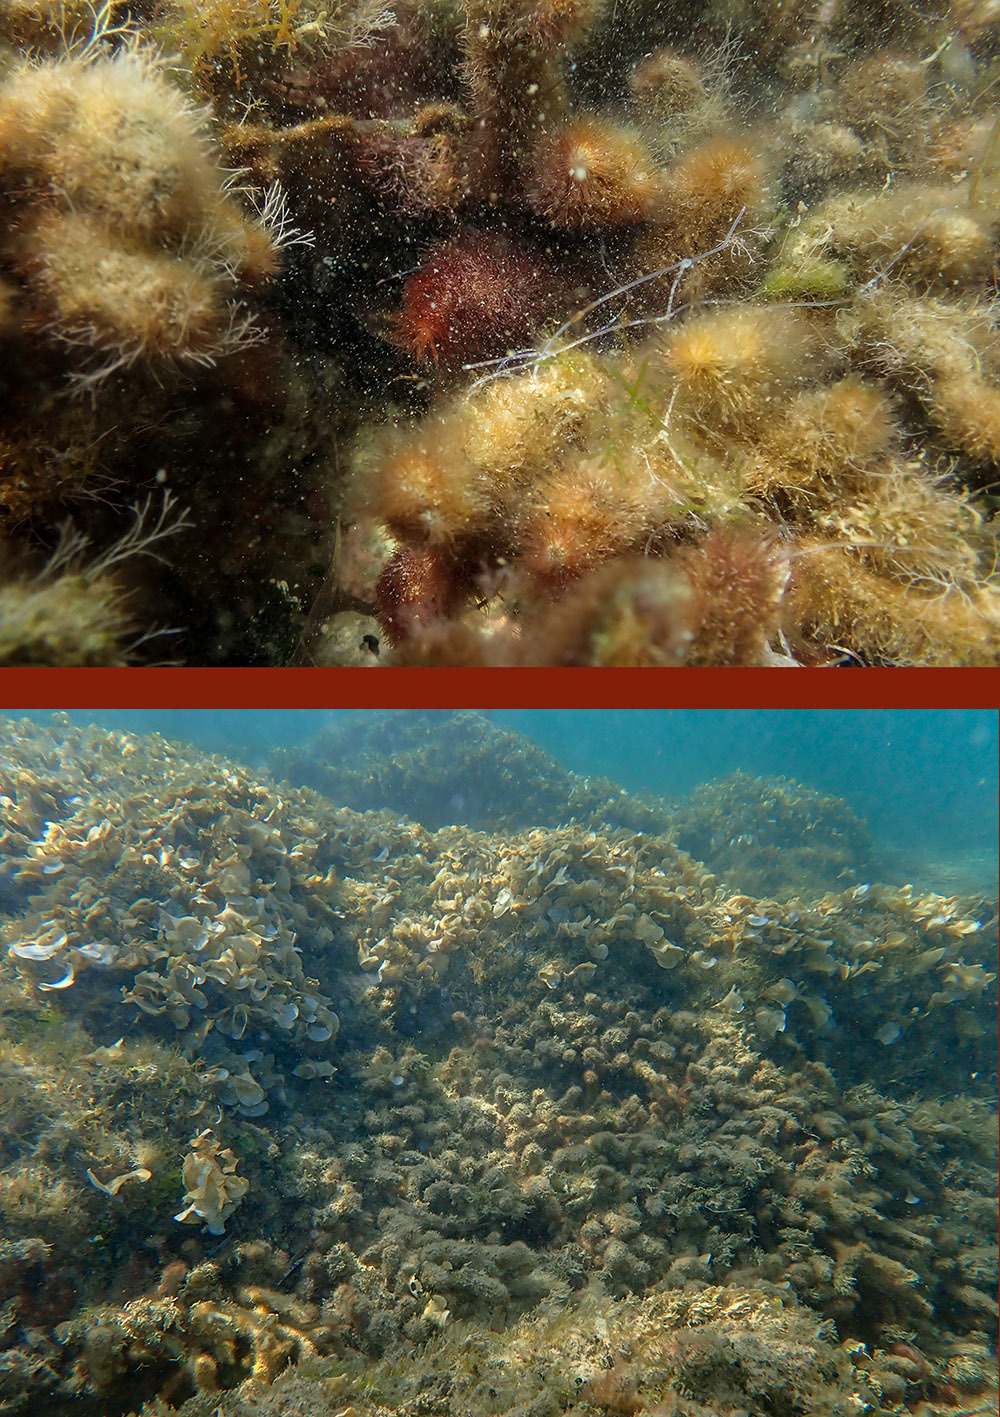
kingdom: Plantae
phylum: Rhodophyta
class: Florideophyceae
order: Ceramiales
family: Rhodomelaceae
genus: Digenea
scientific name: Digenea simplex
